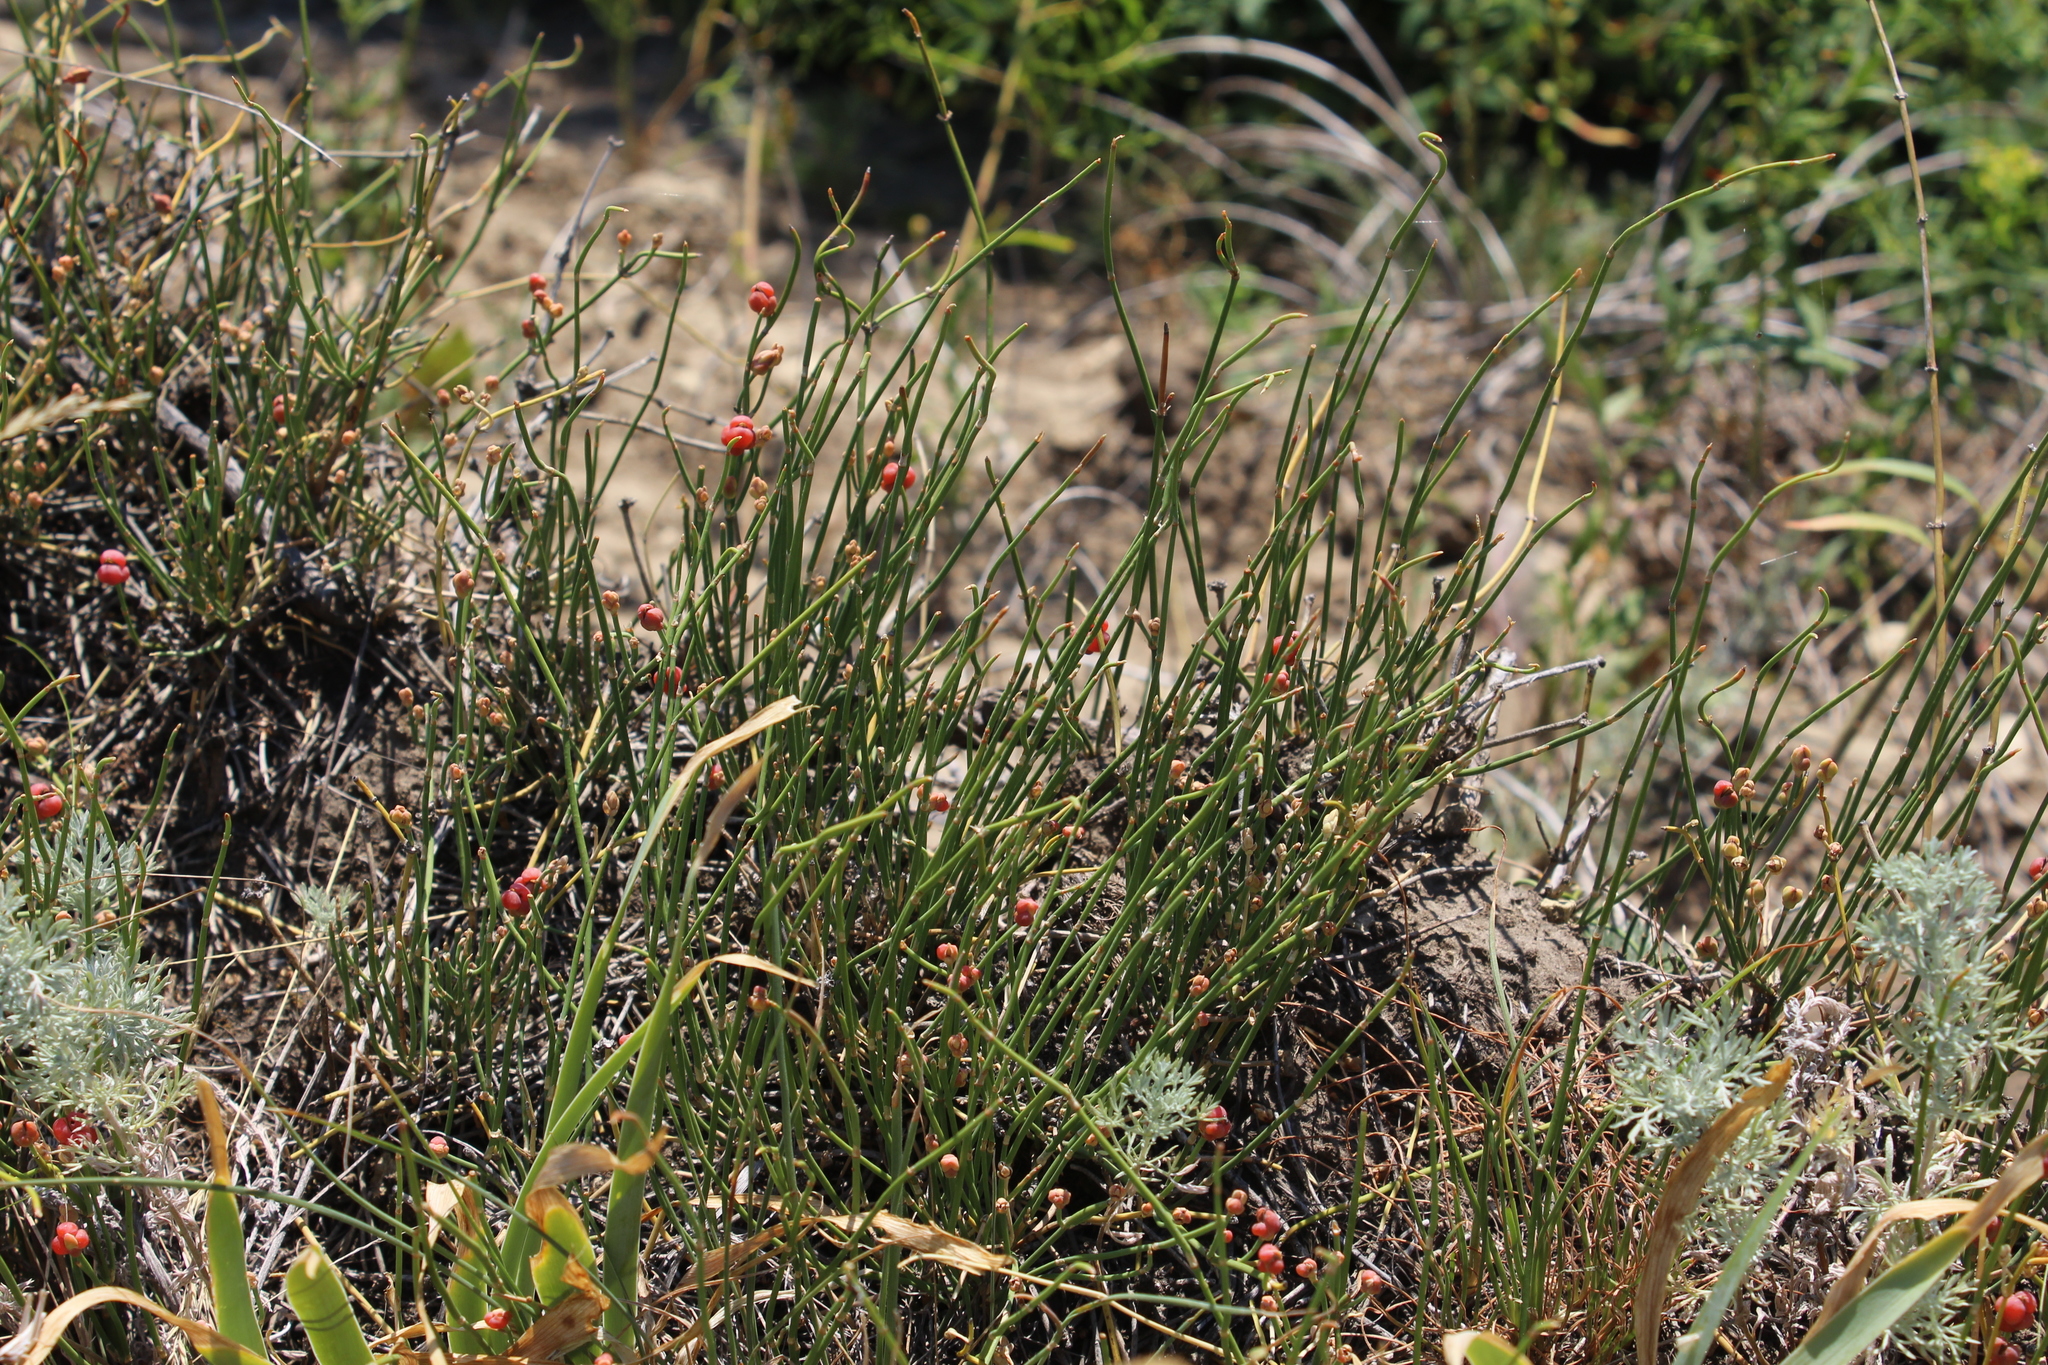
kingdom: Plantae
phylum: Tracheophyta
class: Gnetopsida
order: Ephedrales
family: Ephedraceae
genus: Ephedra
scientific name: Ephedra distachya
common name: Sea grape
